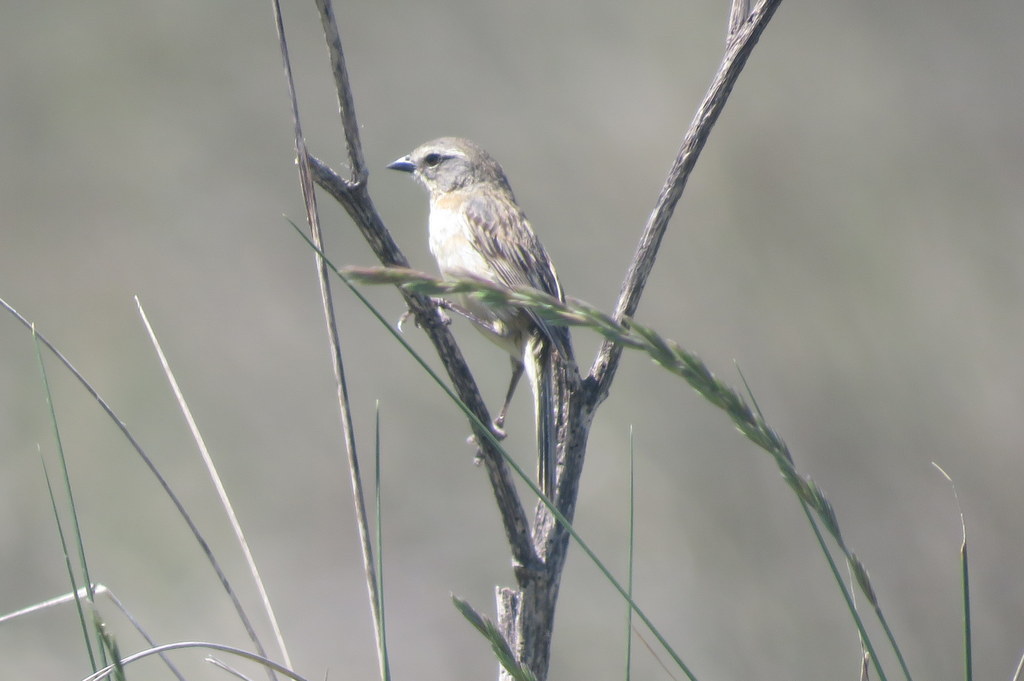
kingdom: Animalia
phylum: Chordata
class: Aves
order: Passeriformes
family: Thraupidae
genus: Donacospiza
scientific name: Donacospiza albifrons
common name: Long-tailed reed finch
